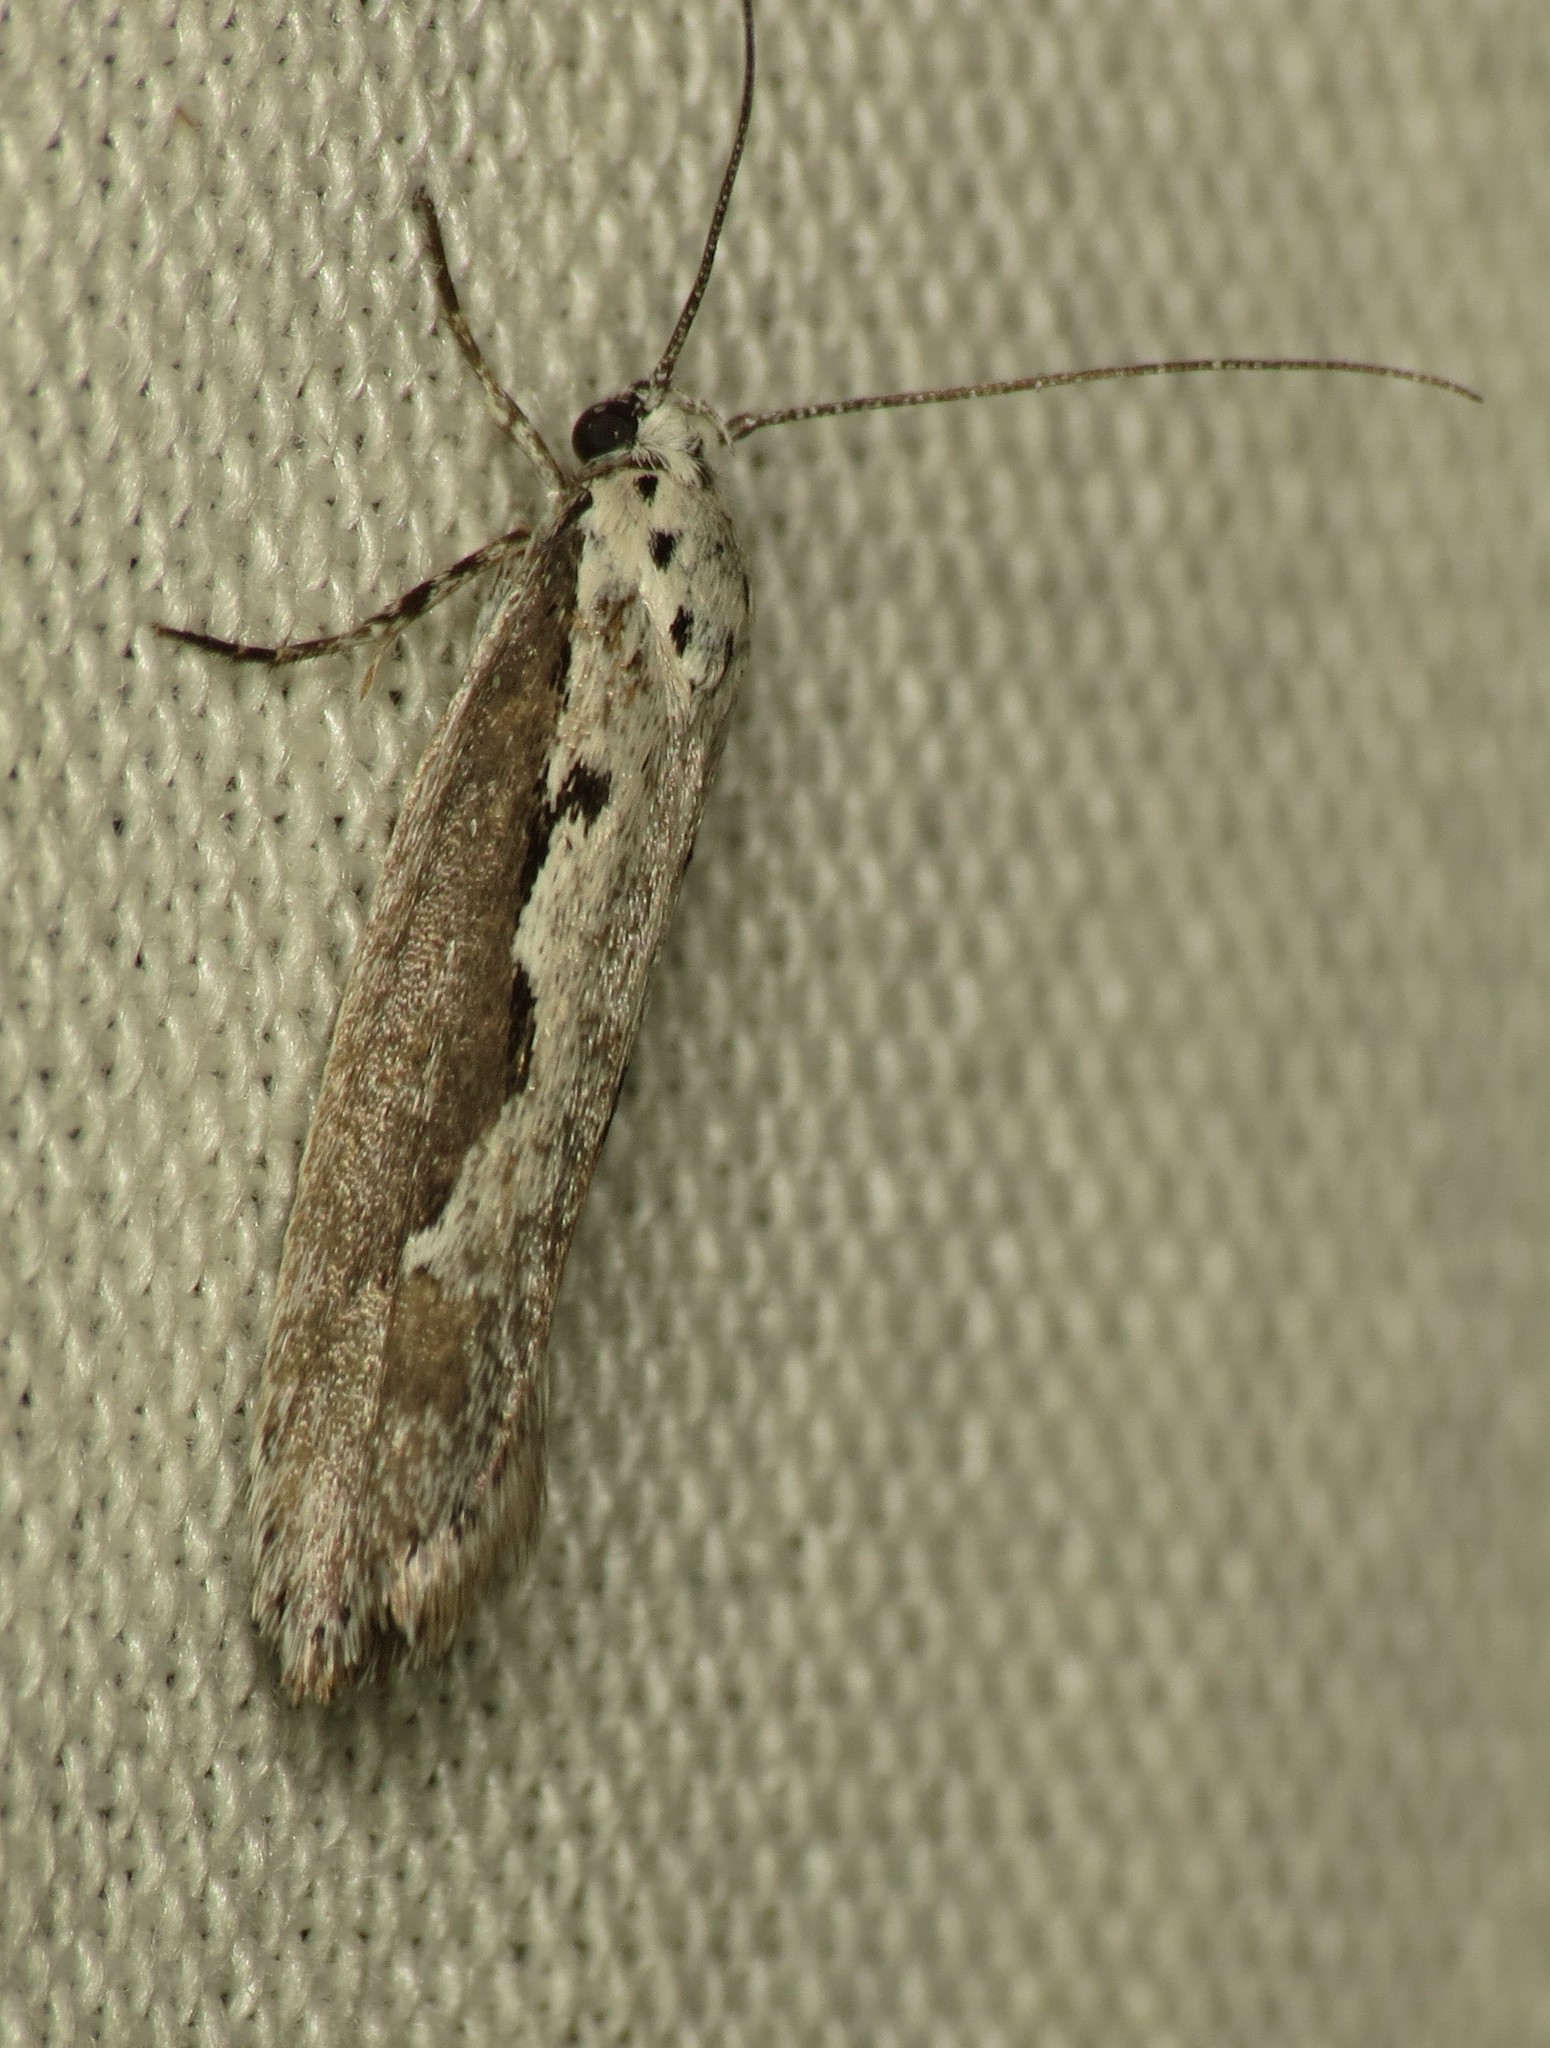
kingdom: Animalia
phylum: Arthropoda
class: Insecta
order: Lepidoptera
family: Ethmiidae
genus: Ethmia
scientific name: Ethmia arctostaphylella
